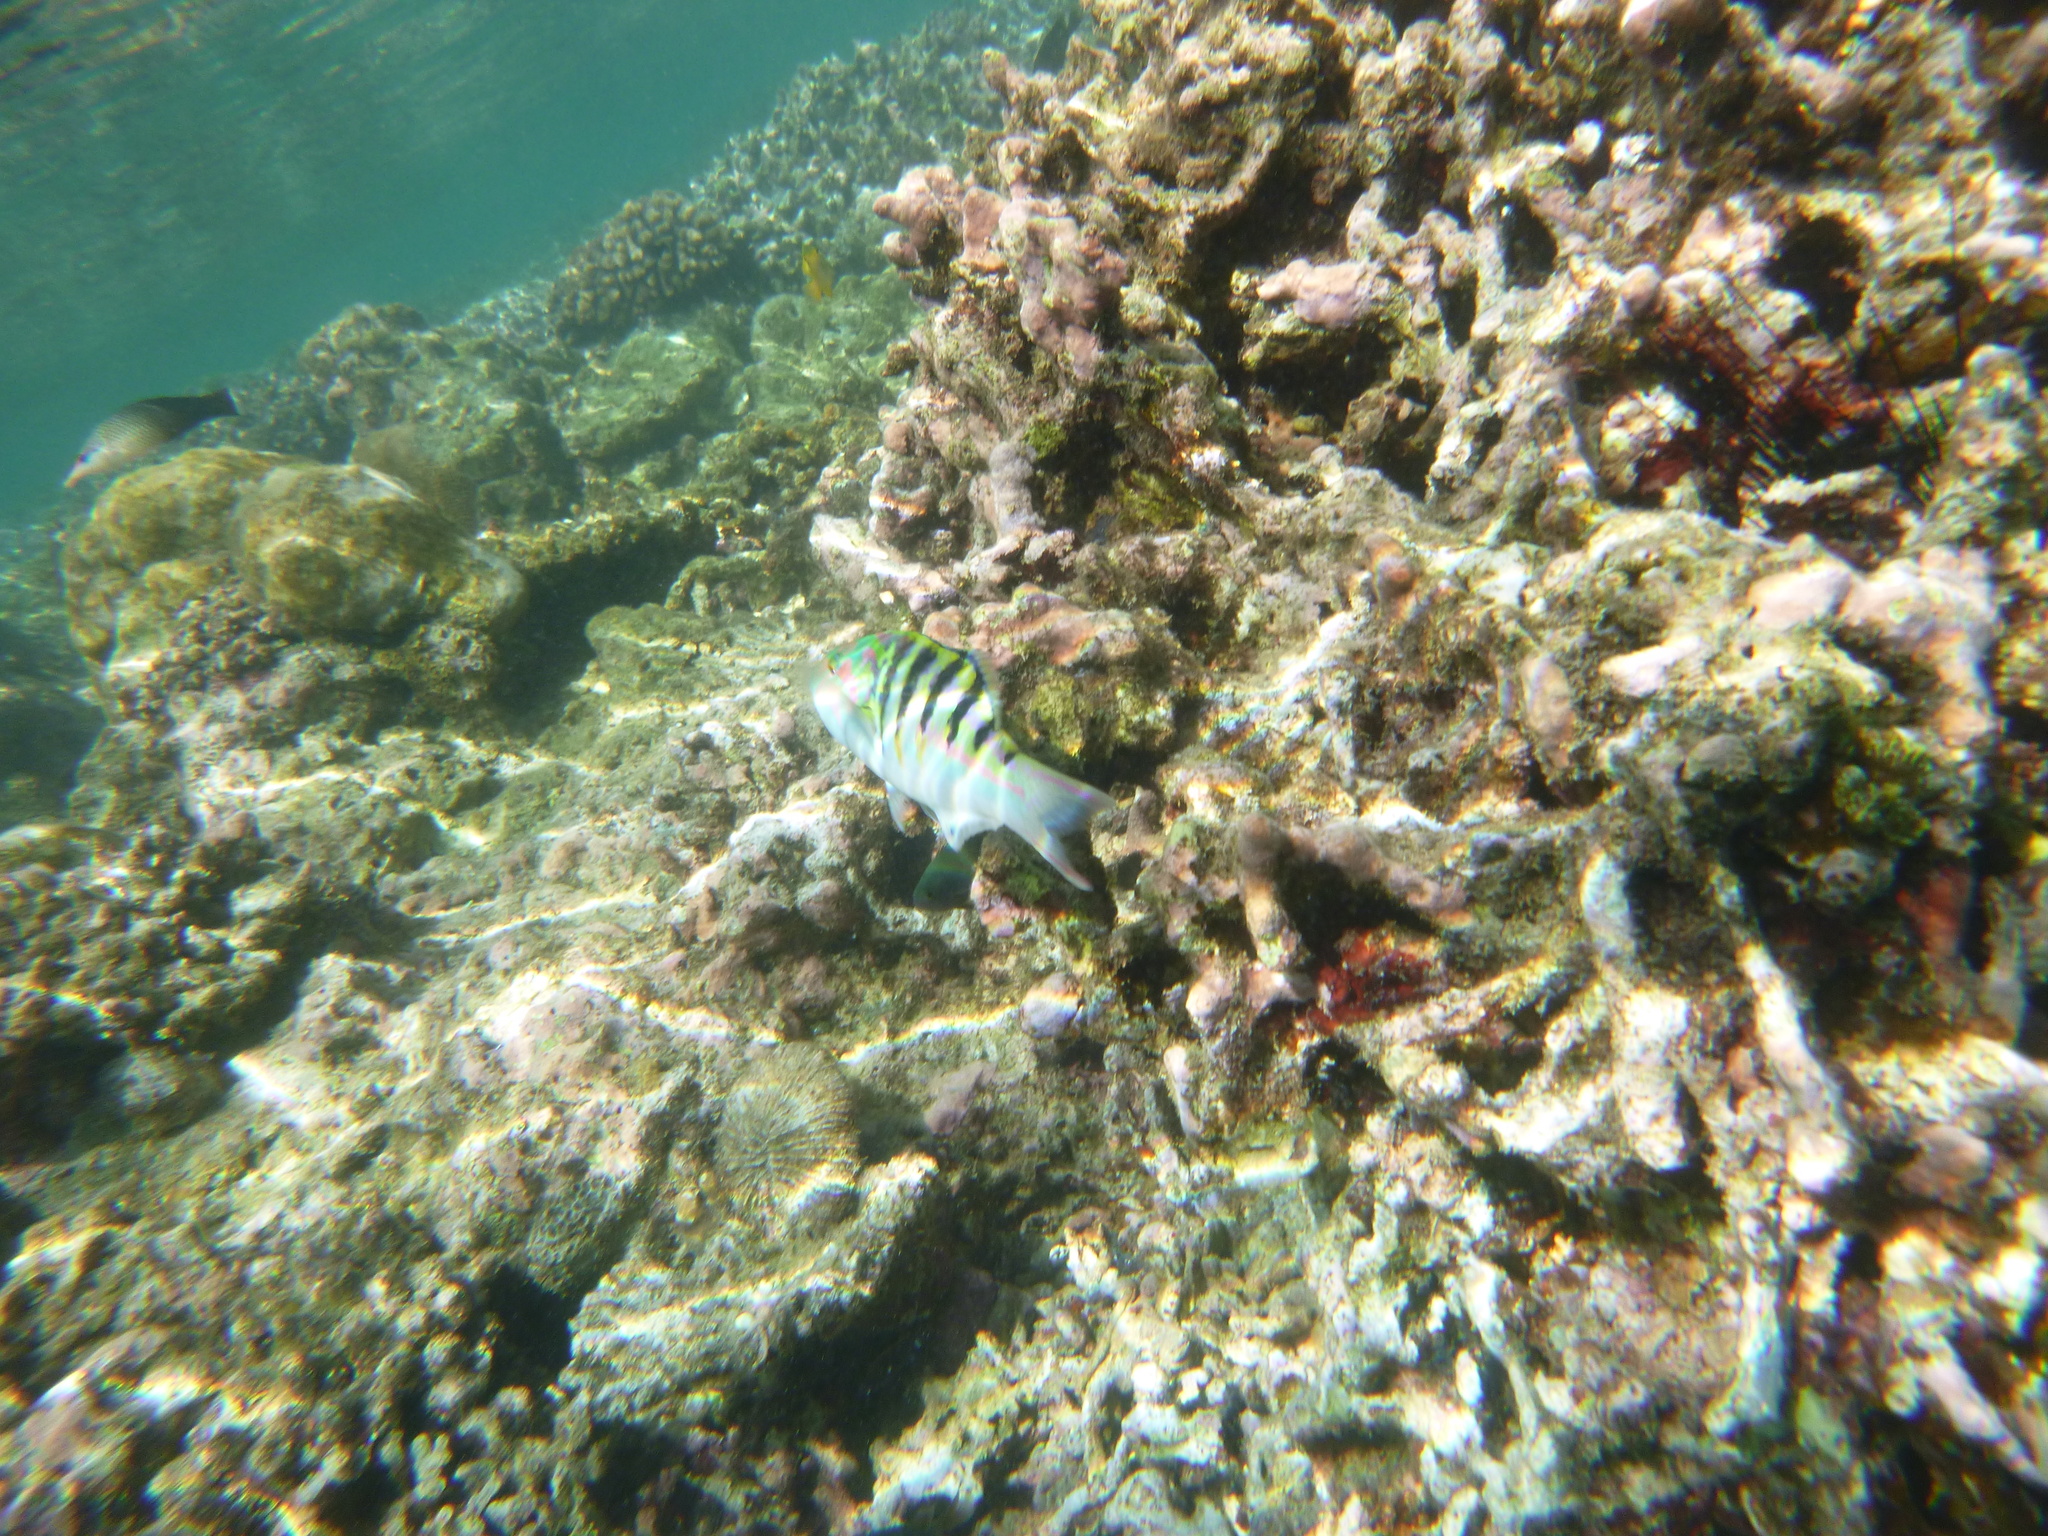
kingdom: Animalia
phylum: Chordata
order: Perciformes
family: Labridae
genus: Thalassoma
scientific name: Thalassoma hardwicke
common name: Sixbar wrasse
